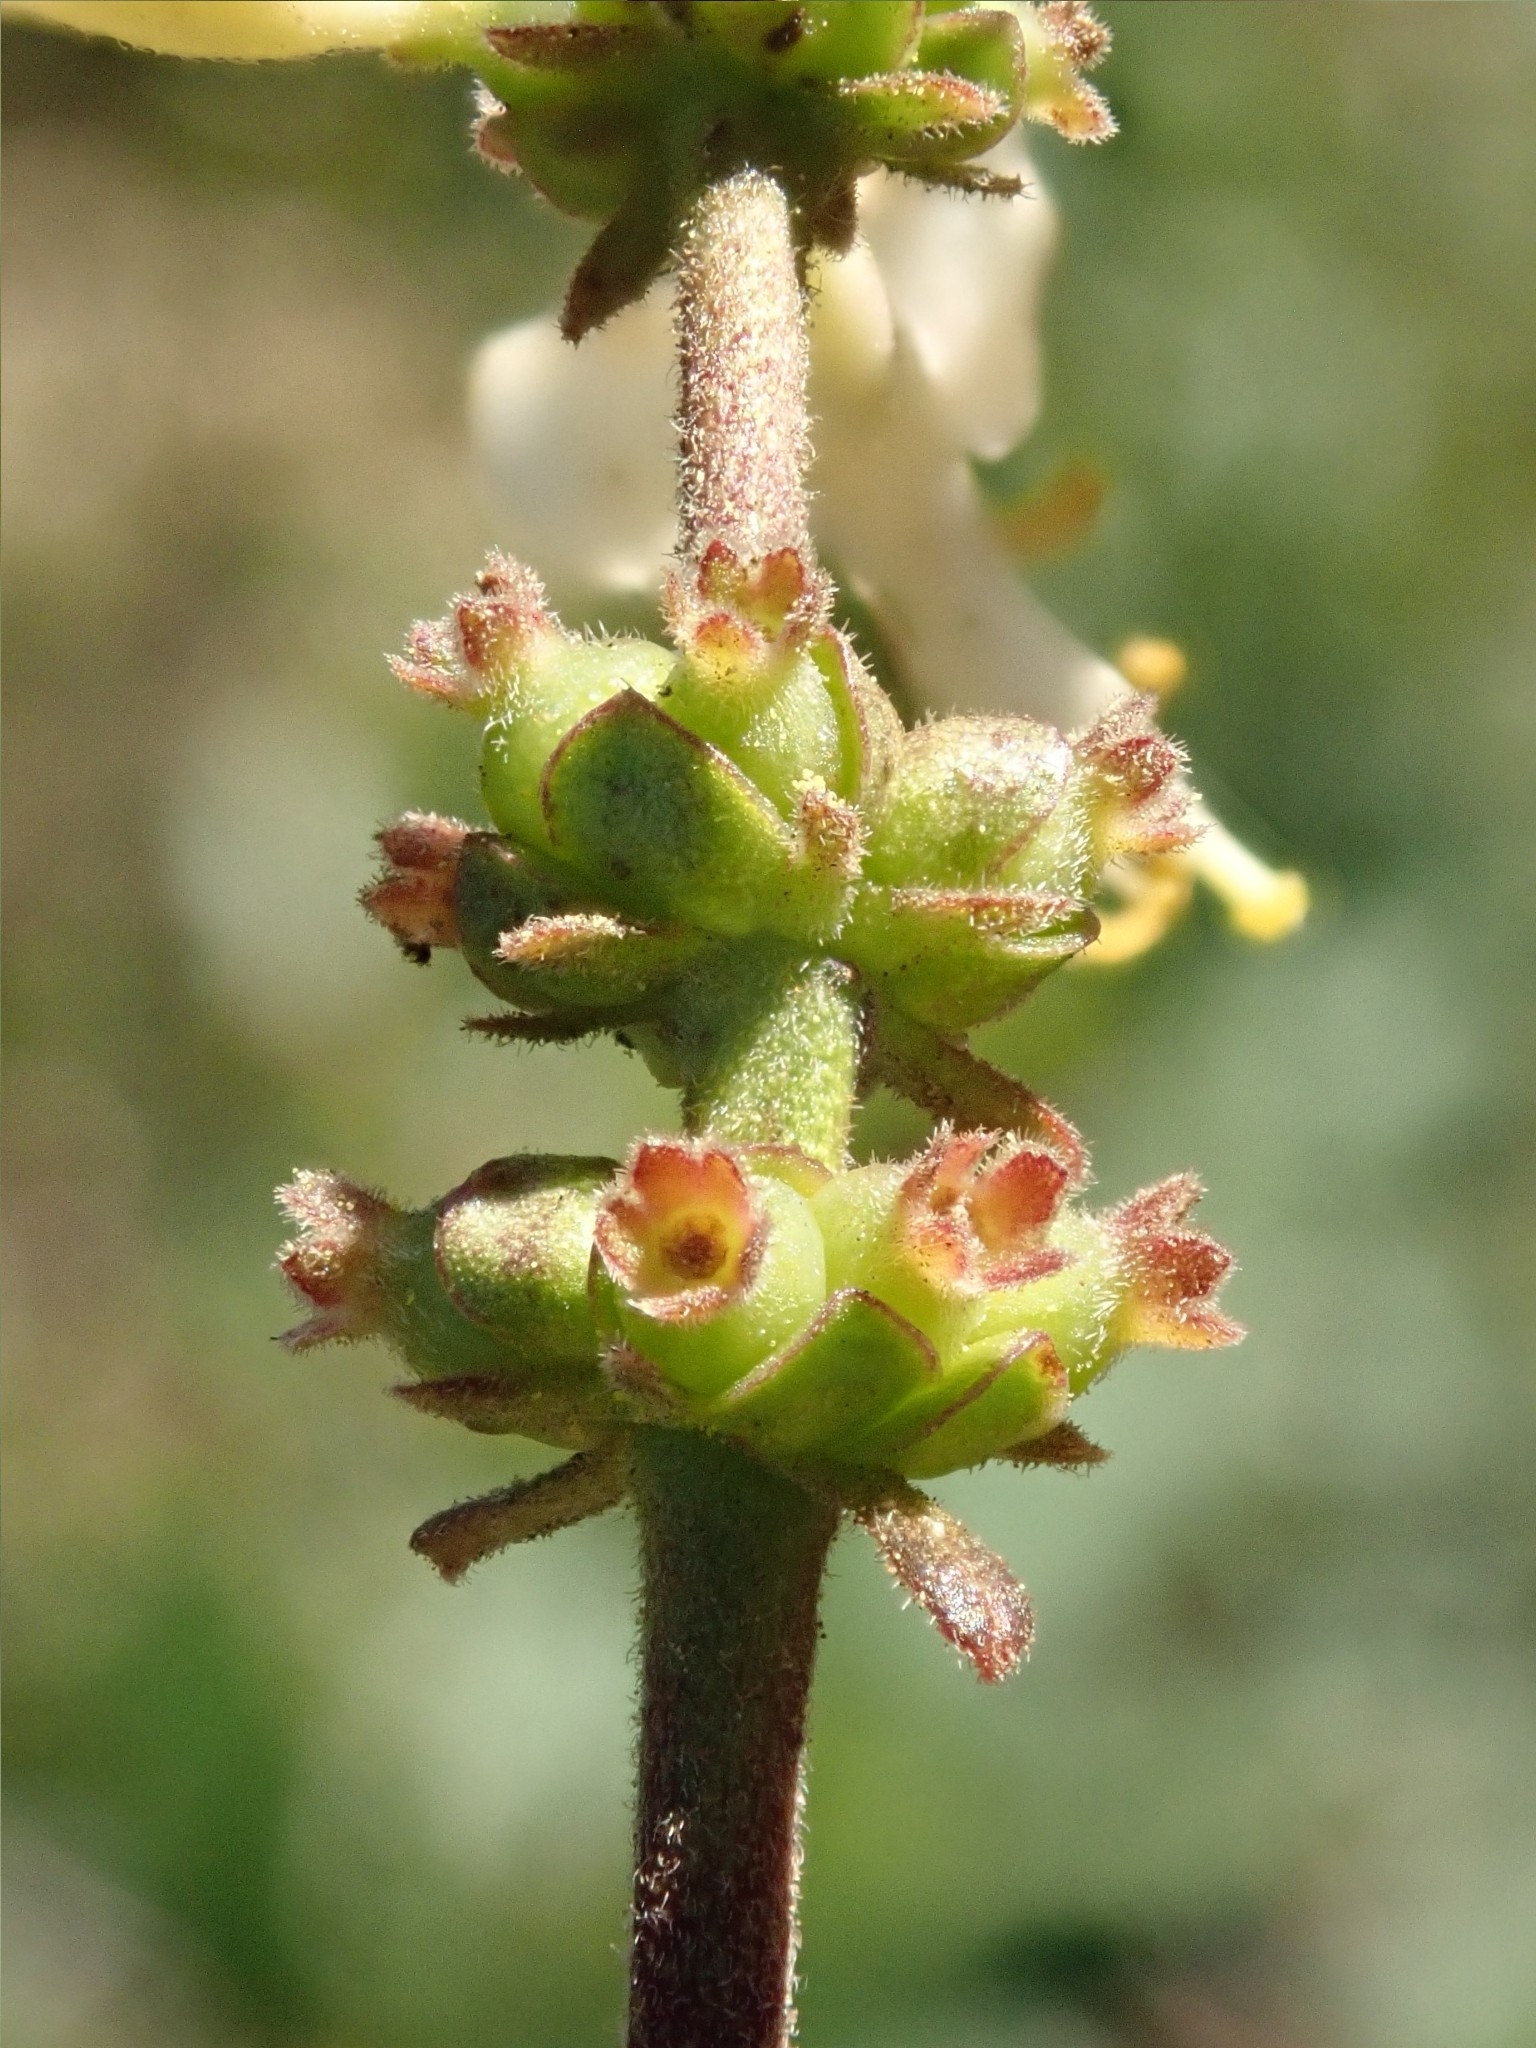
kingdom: Plantae
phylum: Tracheophyta
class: Magnoliopsida
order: Dipsacales
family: Caprifoliaceae
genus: Lonicera
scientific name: Lonicera subspicata
